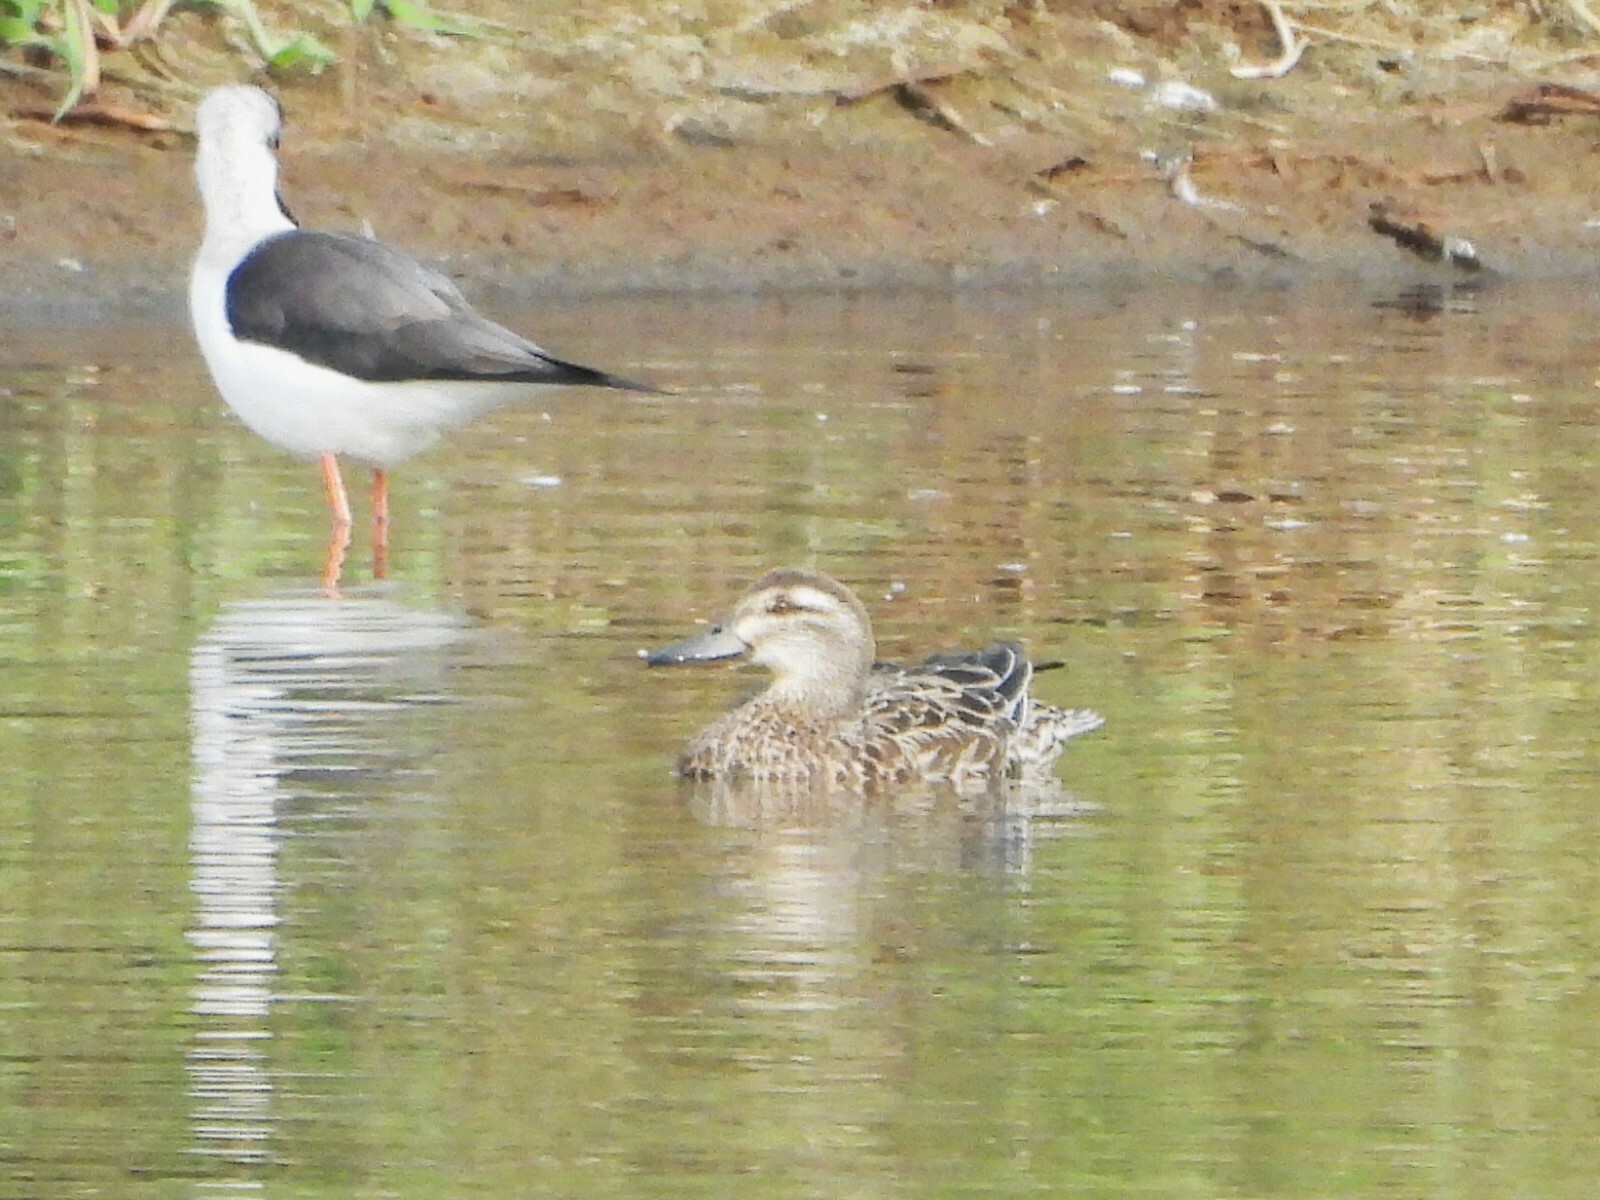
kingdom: Animalia
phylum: Chordata
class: Aves
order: Anseriformes
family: Anatidae
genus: Spatula
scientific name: Spatula querquedula
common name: Garganey
